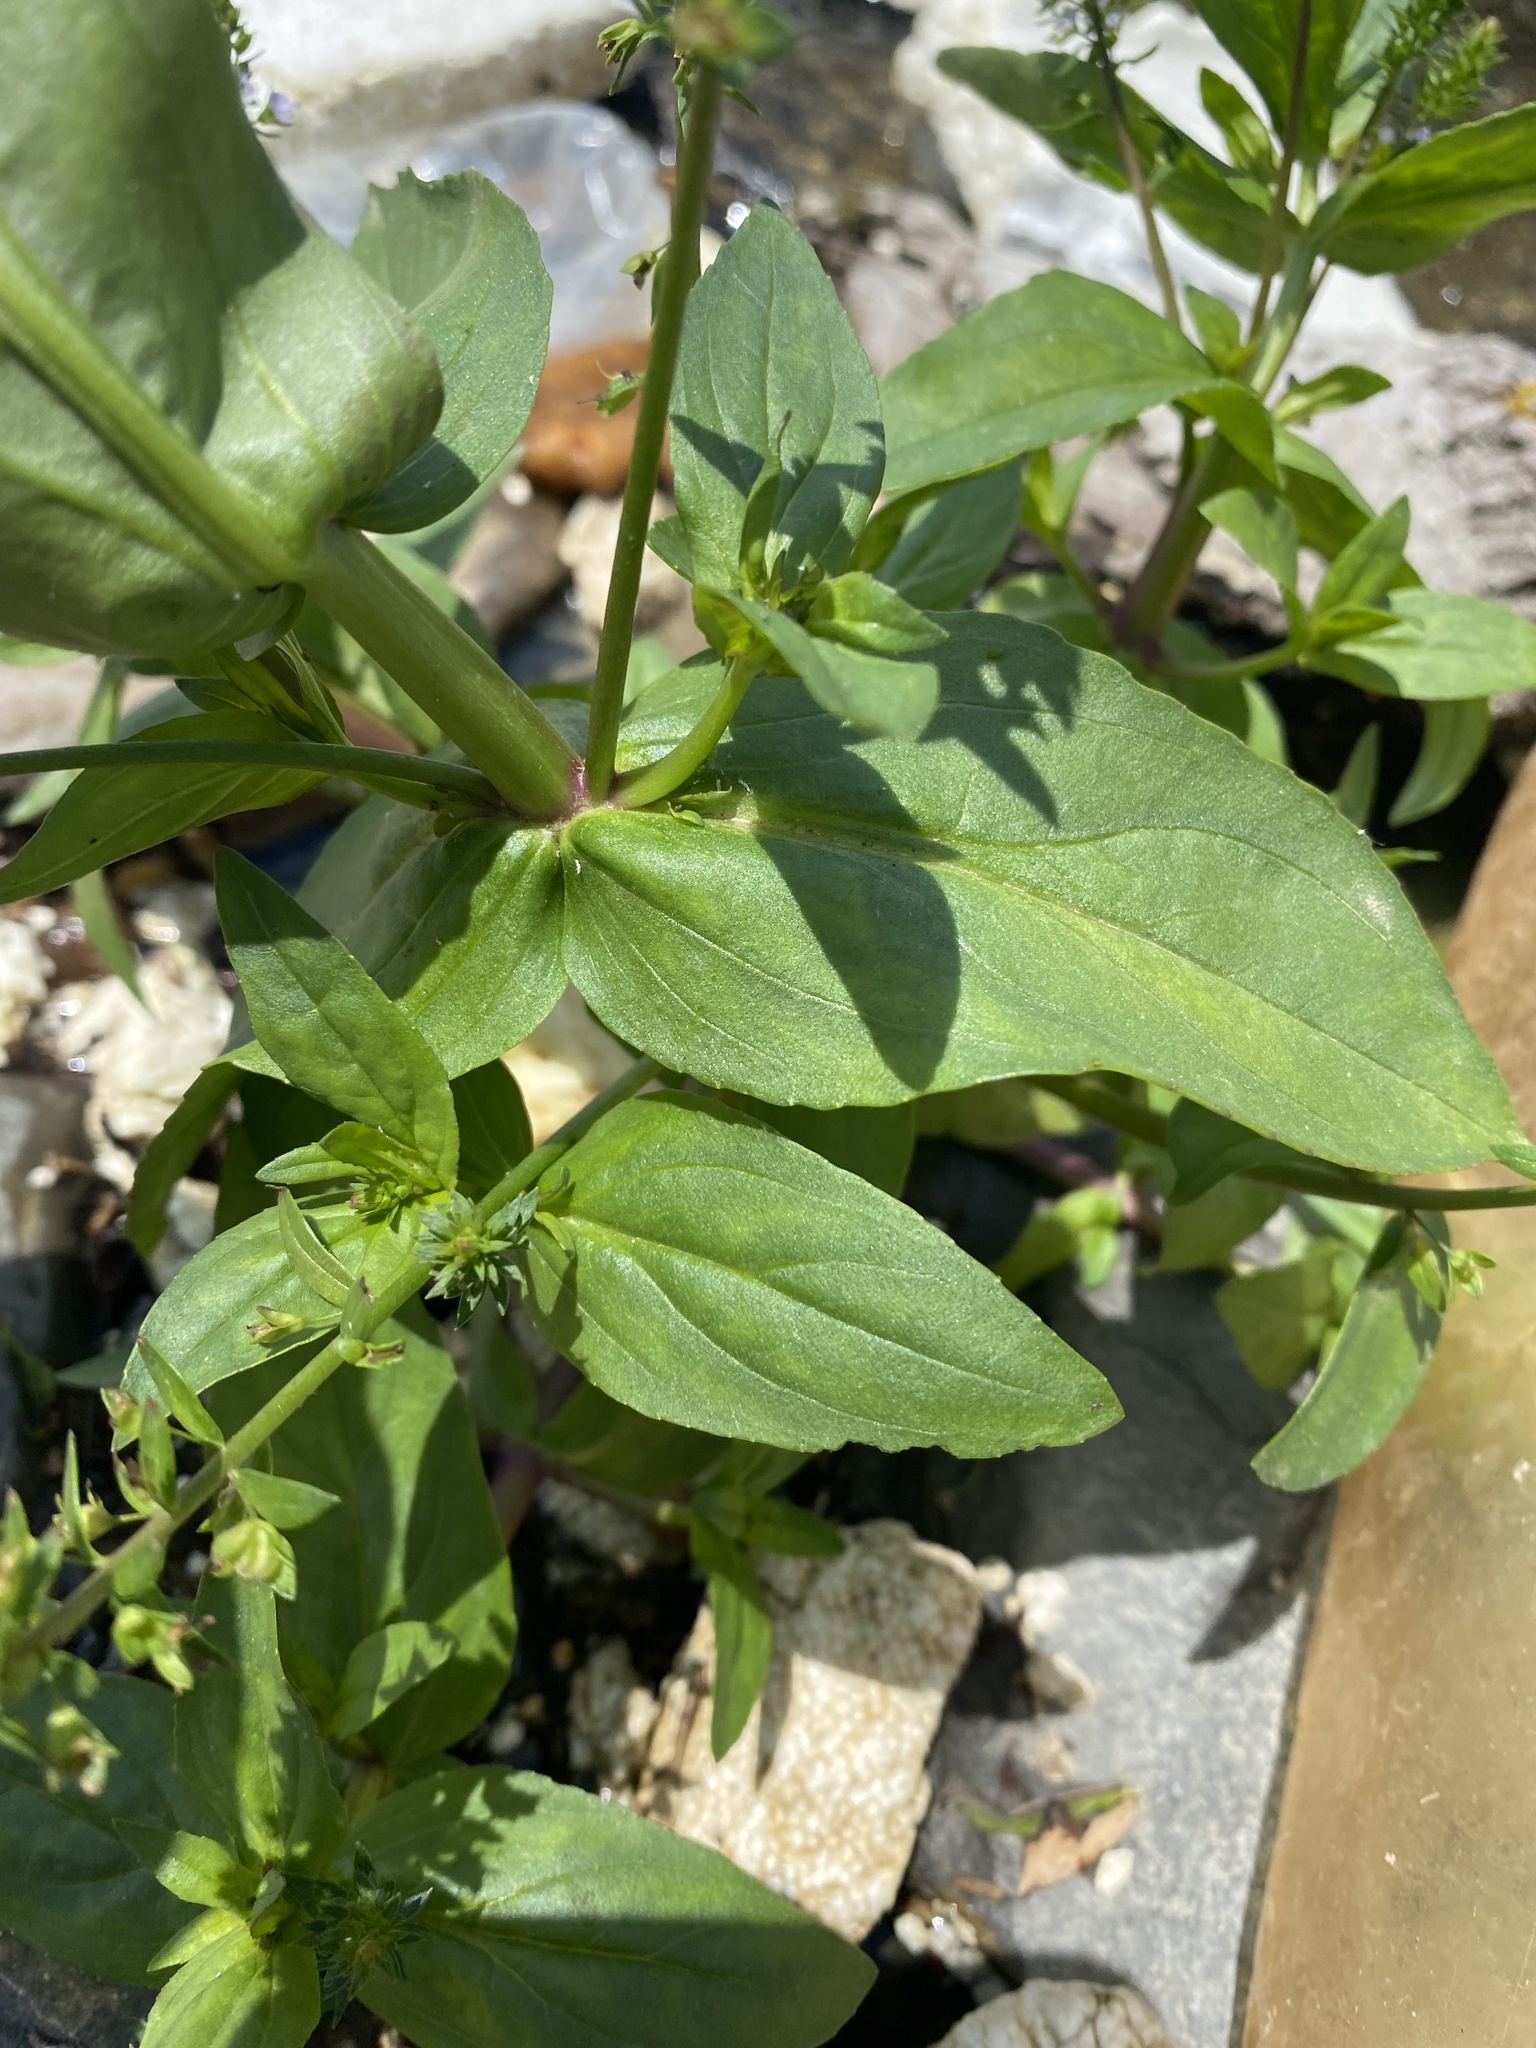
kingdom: Plantae
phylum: Tracheophyta
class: Magnoliopsida
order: Lamiales
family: Plantaginaceae
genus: Veronica
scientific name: Veronica anagallis-aquatica
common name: Water speedwell
